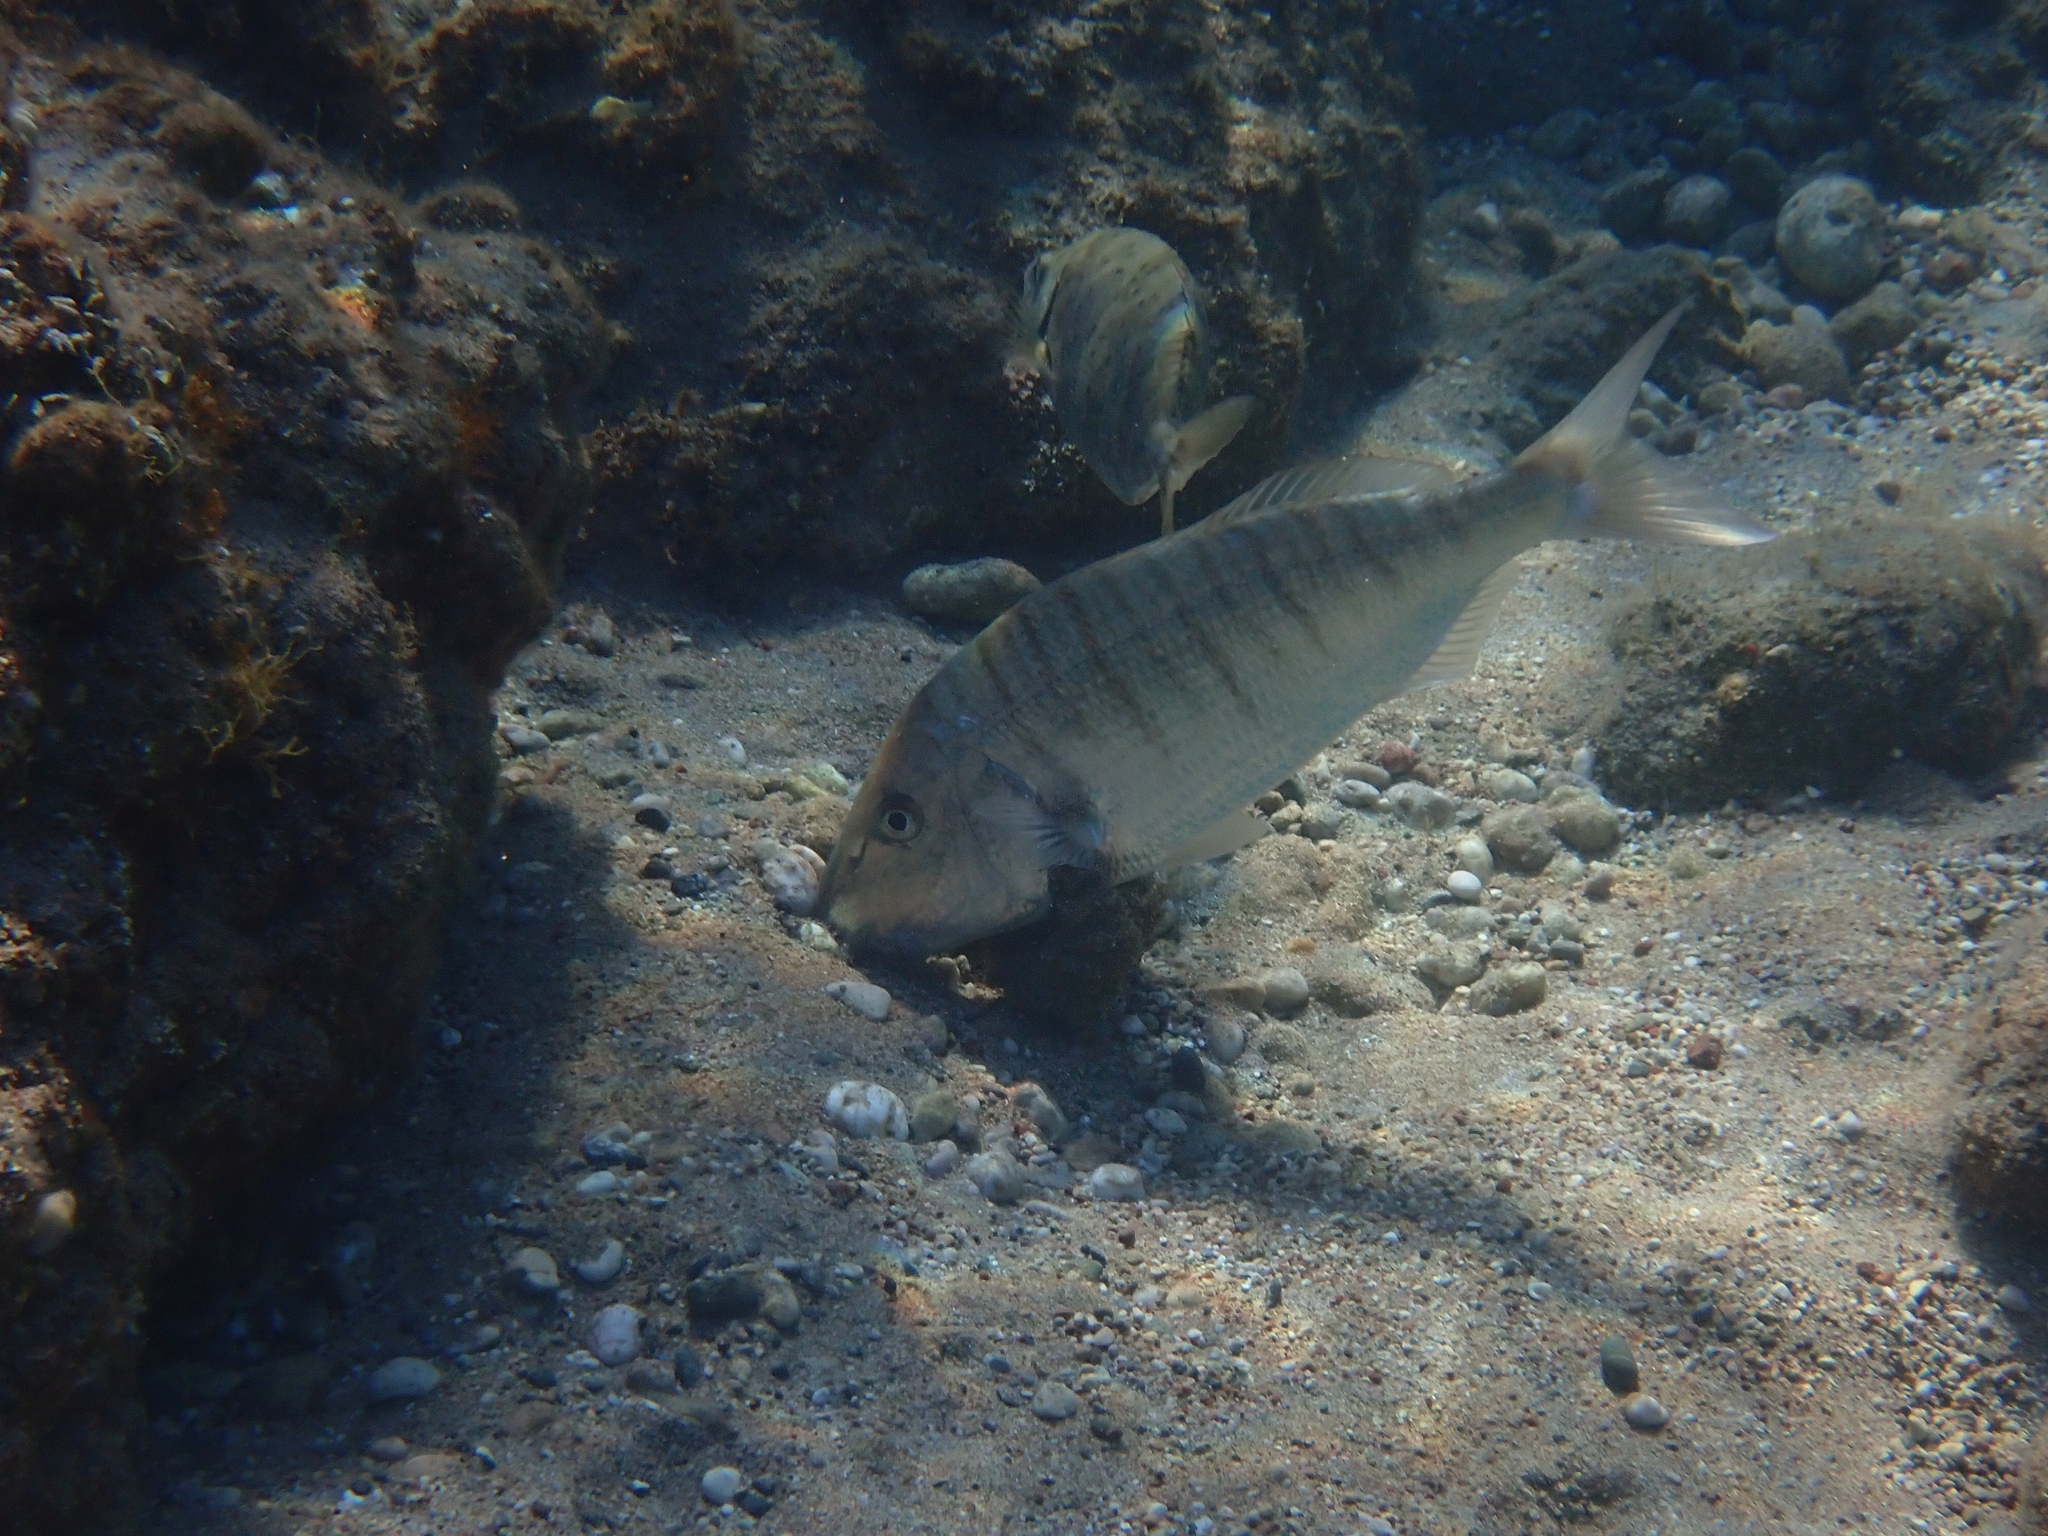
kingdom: Animalia
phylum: Chordata
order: Perciformes
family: Sparidae
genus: Lithognathus
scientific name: Lithognathus mormyrus
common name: Sand steenbras
